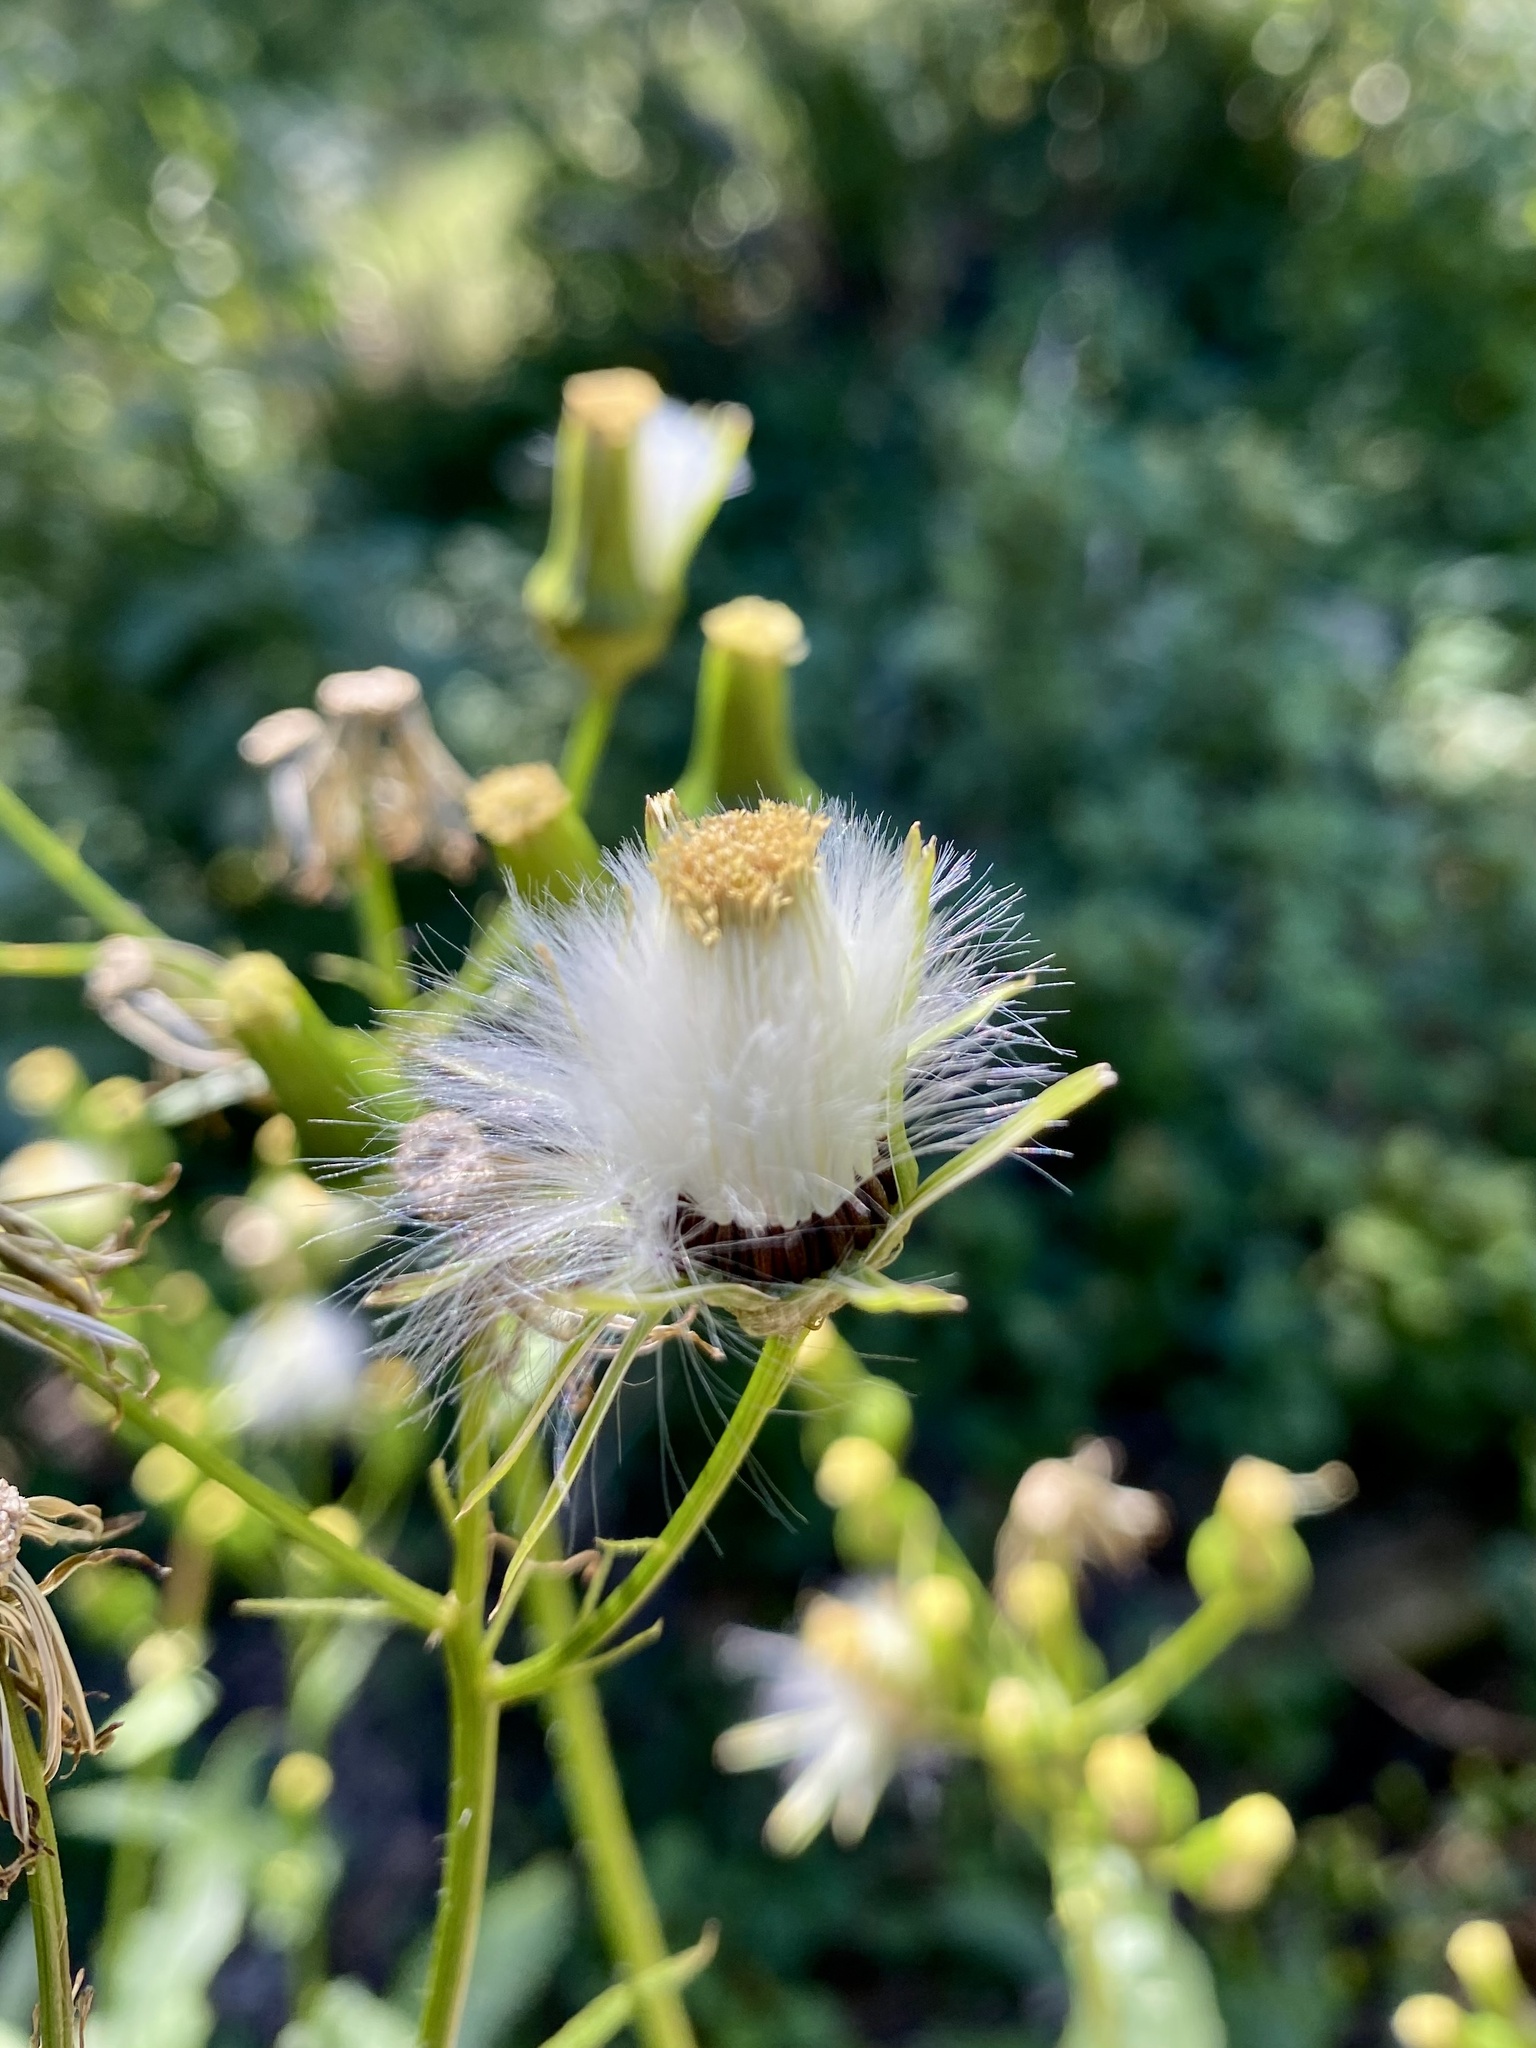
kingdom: Plantae
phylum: Tracheophyta
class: Magnoliopsida
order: Asterales
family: Asteraceae
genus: Erechtites
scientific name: Erechtites hieraciifolius
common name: American burnweed
